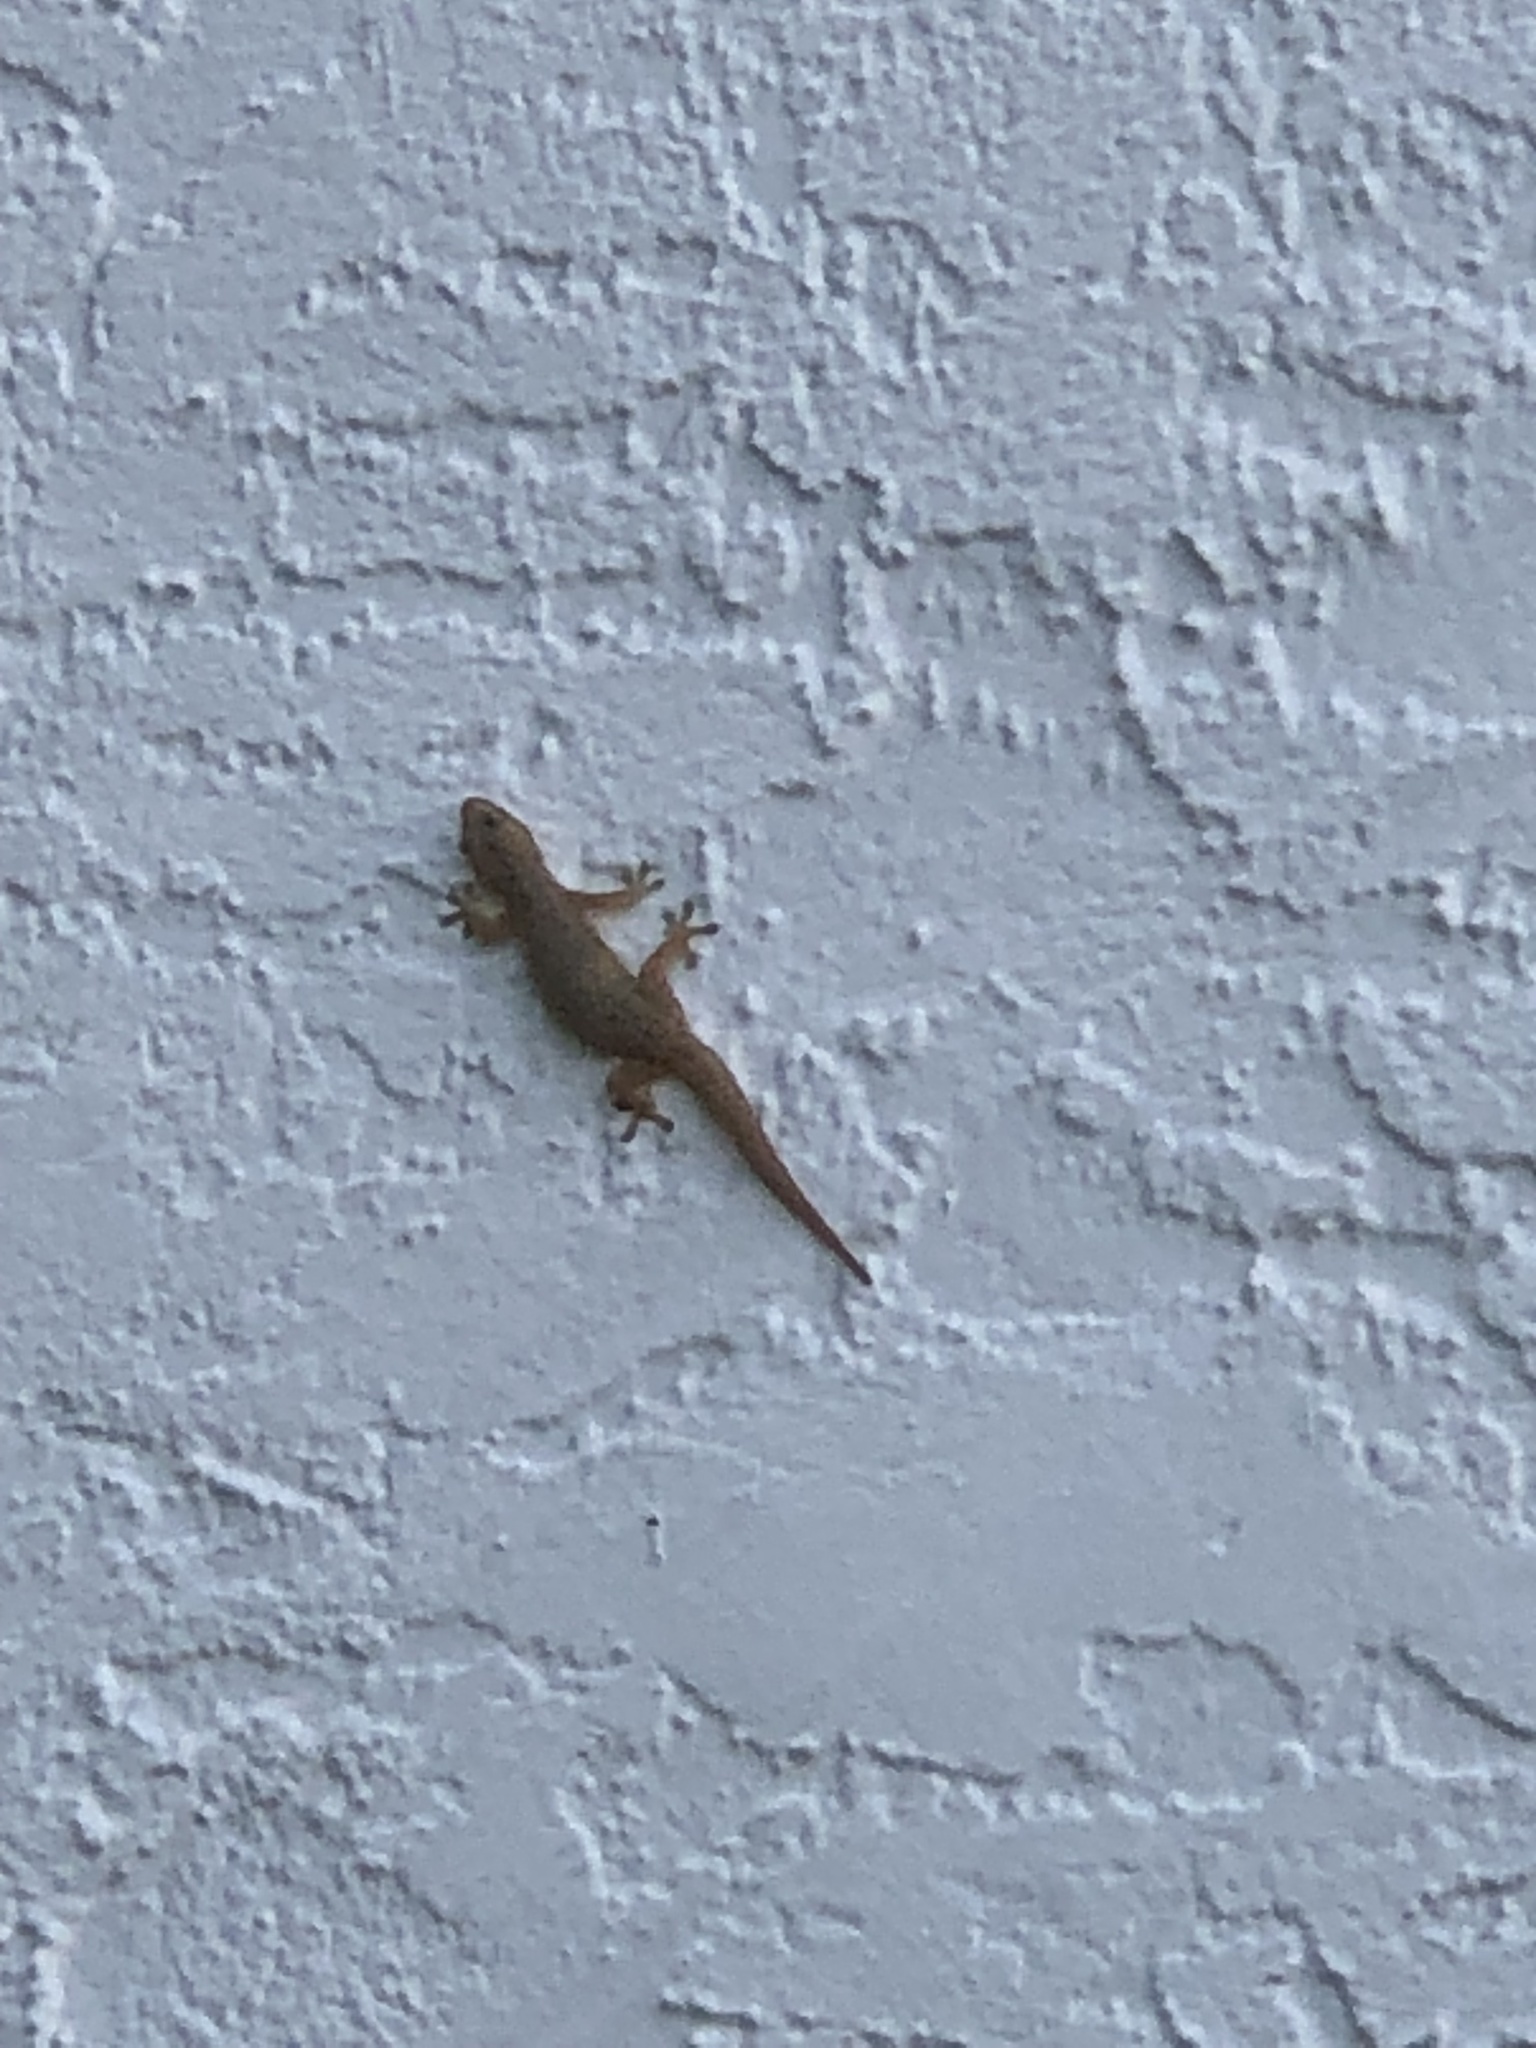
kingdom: Animalia
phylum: Chordata
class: Squamata
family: Gekkonidae
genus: Hemidactylus
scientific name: Hemidactylus mabouia
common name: House gecko
